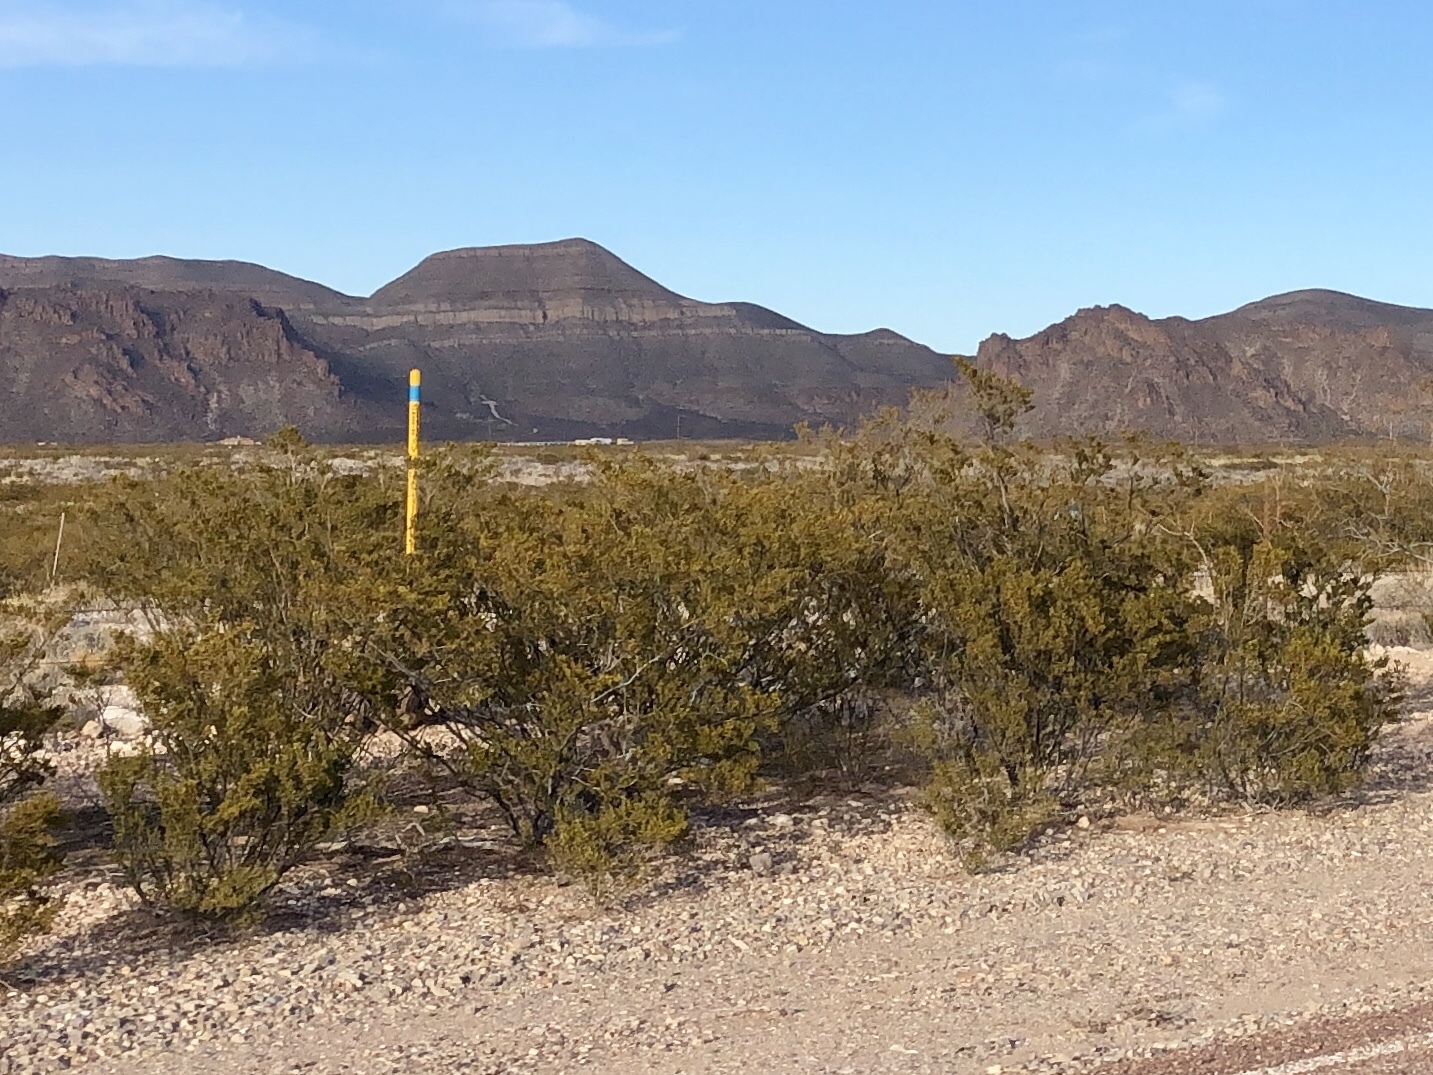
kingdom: Plantae
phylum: Tracheophyta
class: Magnoliopsida
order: Zygophyllales
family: Zygophyllaceae
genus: Larrea
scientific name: Larrea tridentata
